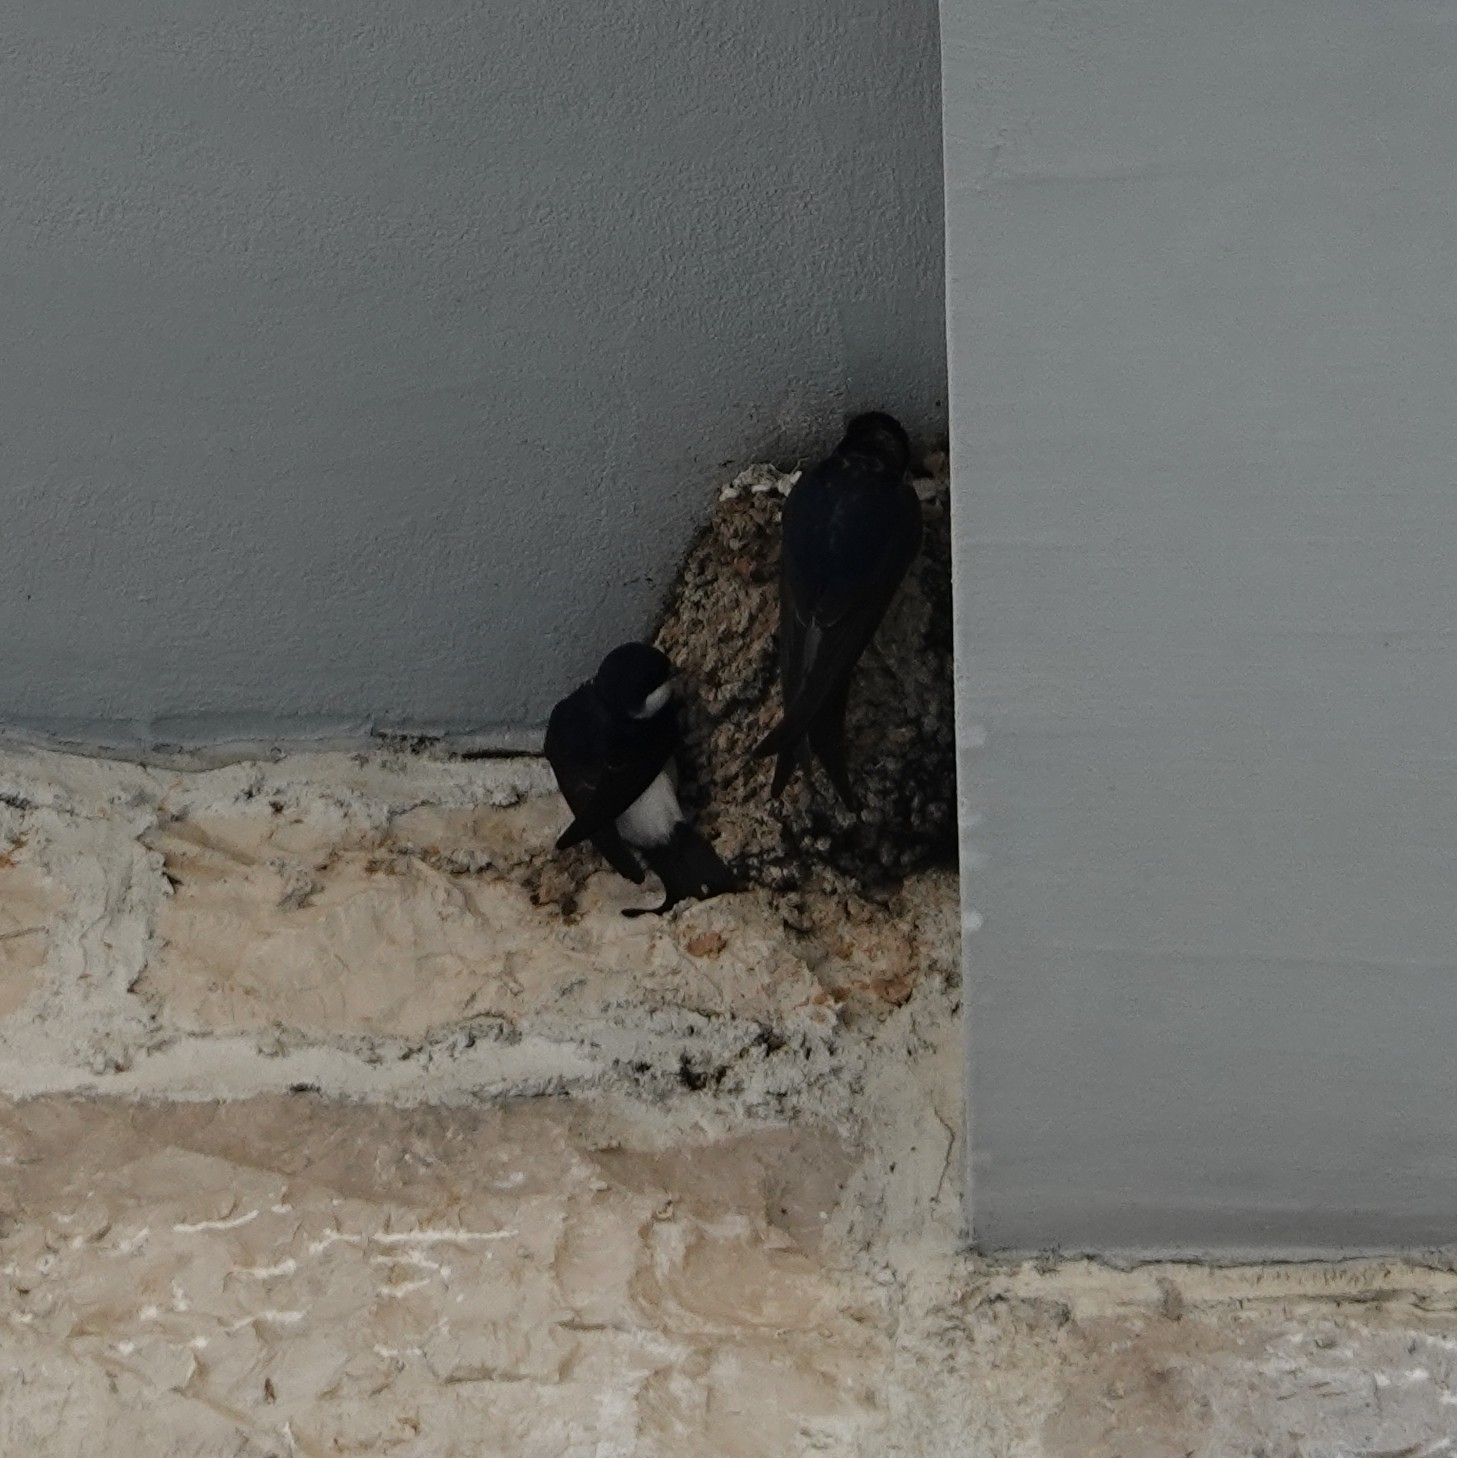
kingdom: Animalia
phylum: Chordata
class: Aves
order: Passeriformes
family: Hirundinidae
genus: Delichon
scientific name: Delichon urbicum
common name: Common house martin
